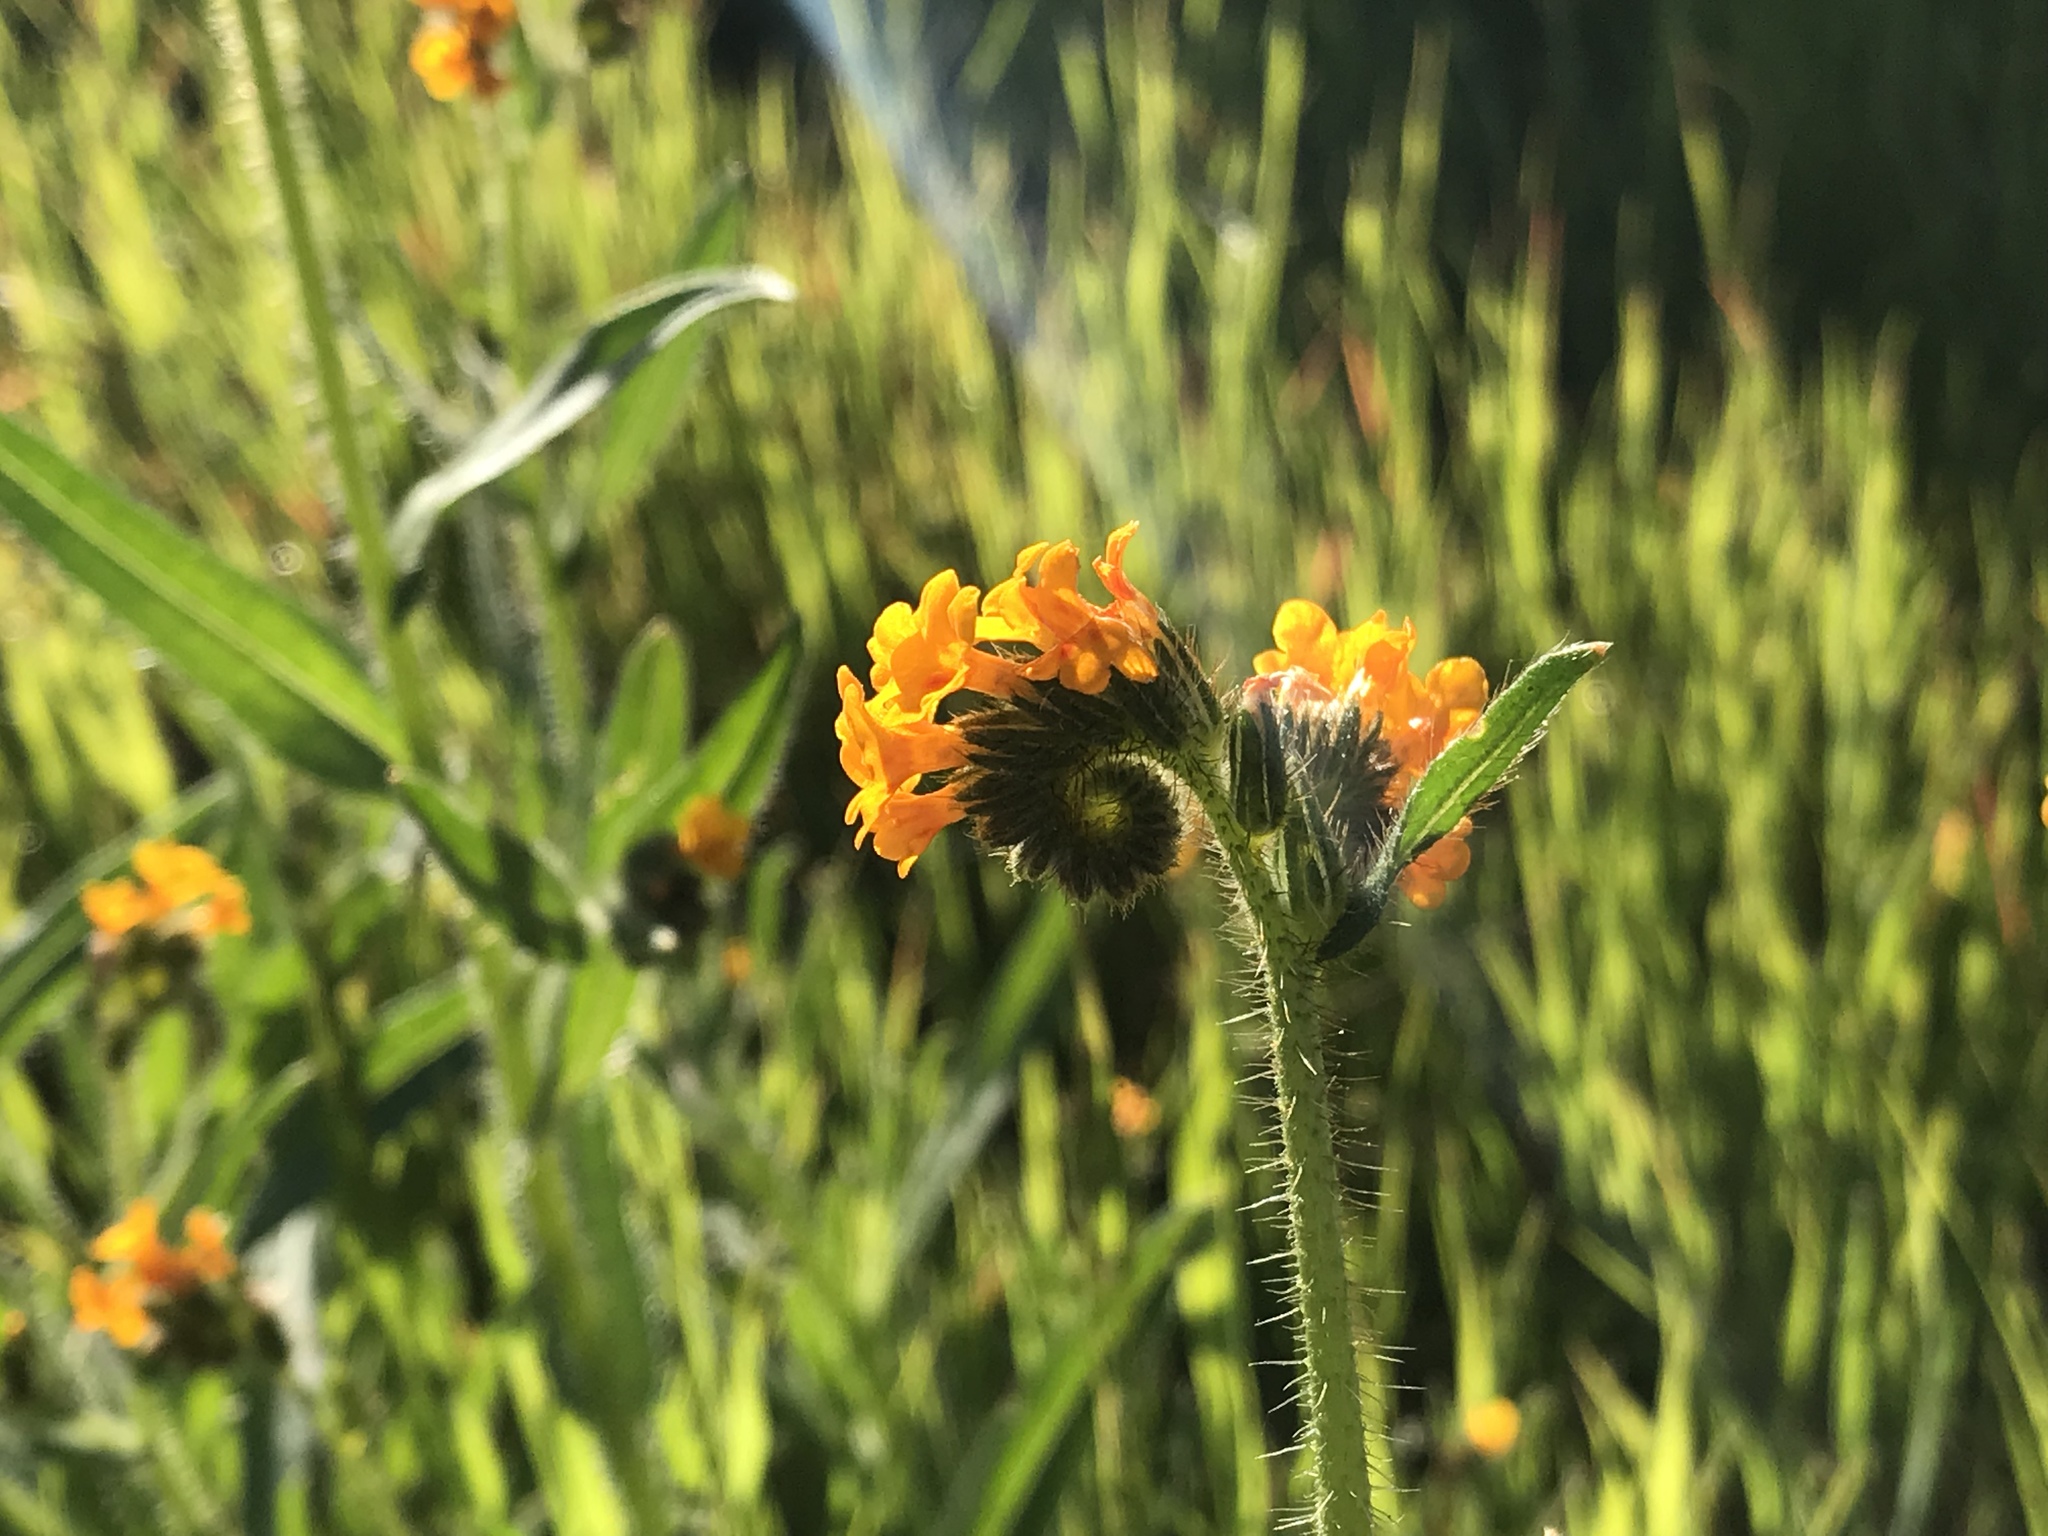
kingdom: Plantae
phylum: Tracheophyta
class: Magnoliopsida
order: Boraginales
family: Boraginaceae
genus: Amsinckia
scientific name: Amsinckia menziesii
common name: Menzies' fiddleneck
